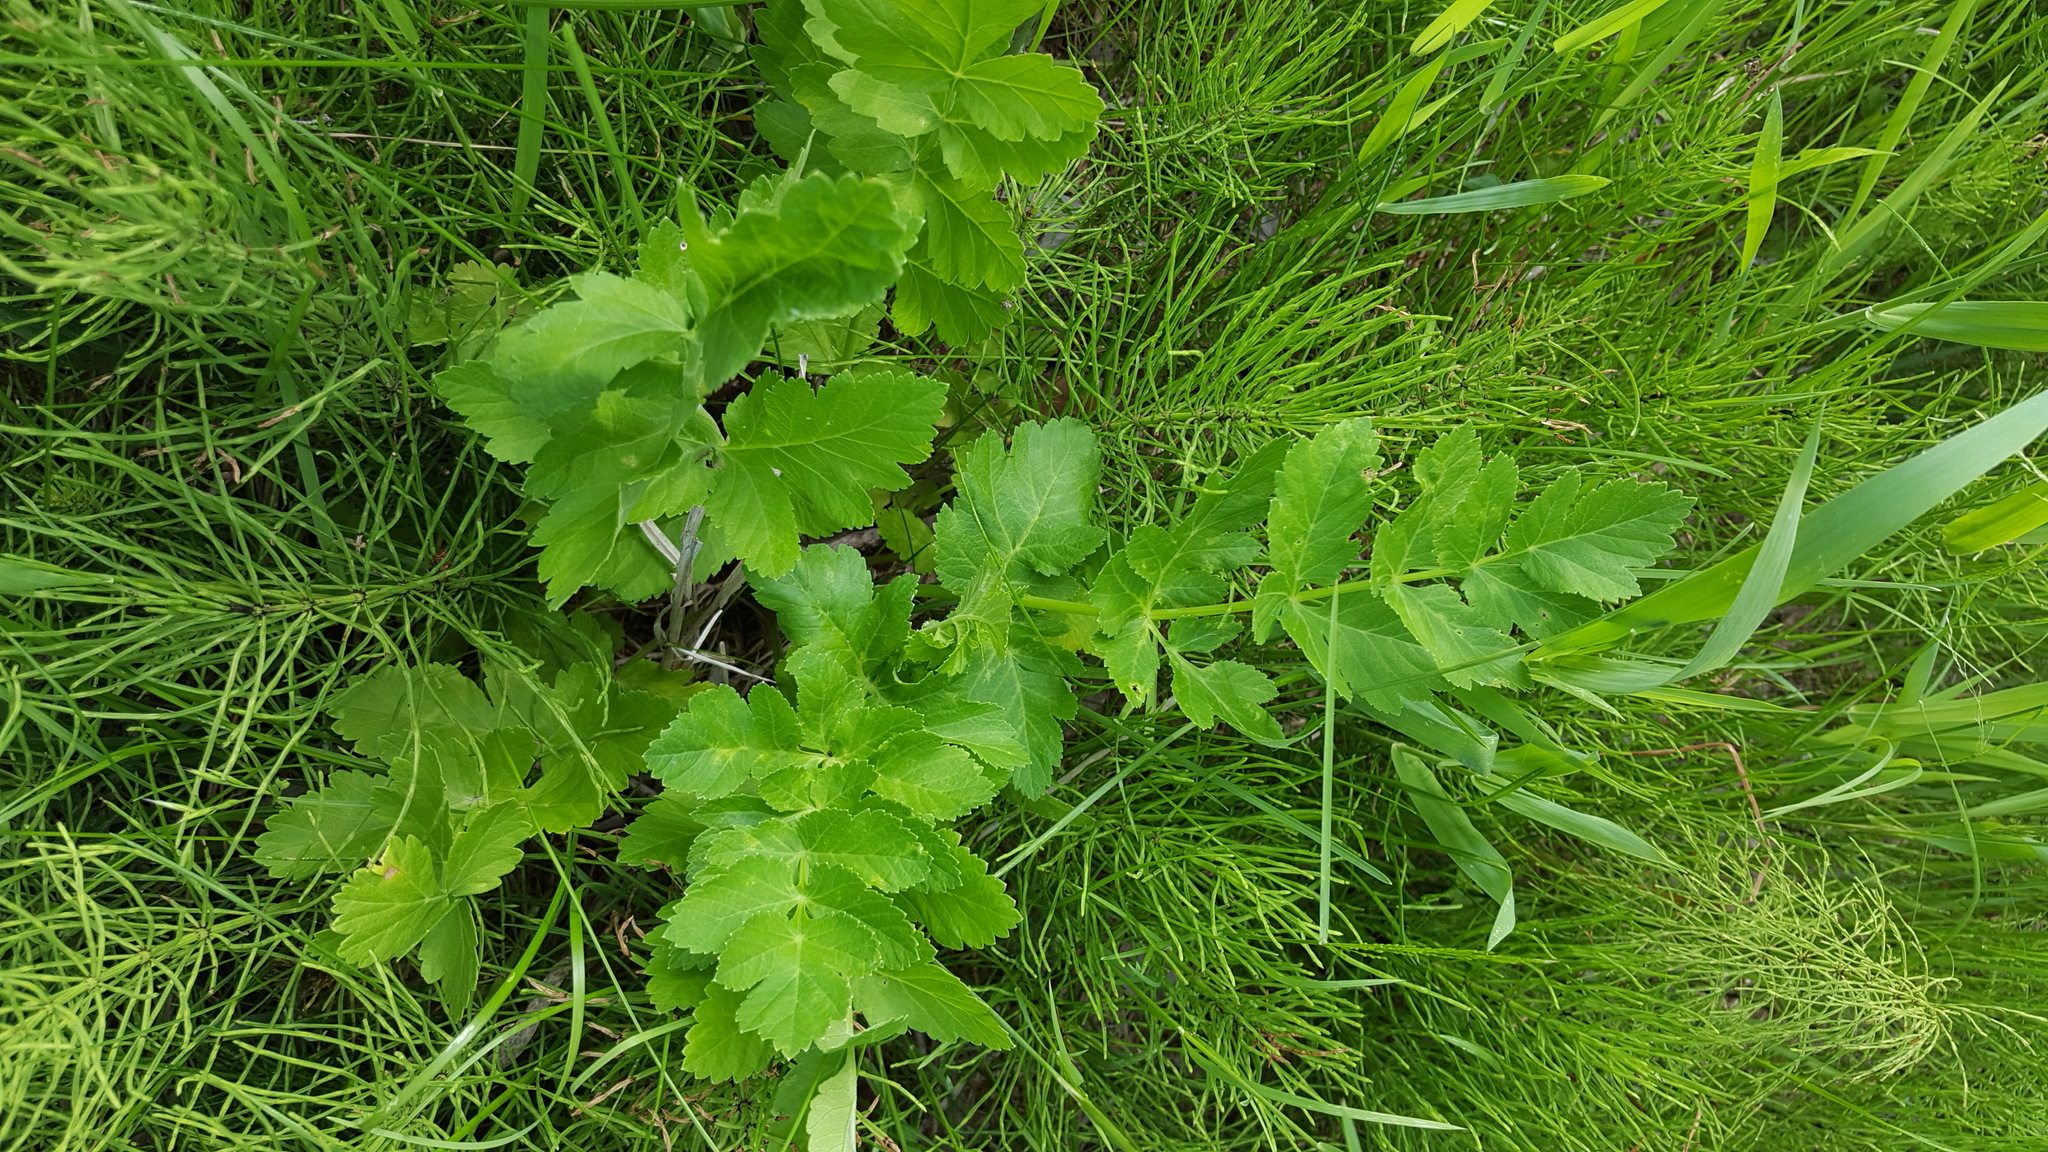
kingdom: Plantae
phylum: Tracheophyta
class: Magnoliopsida
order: Apiales
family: Apiaceae
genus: Pastinaca
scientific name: Pastinaca sativa
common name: Wild parsnip
